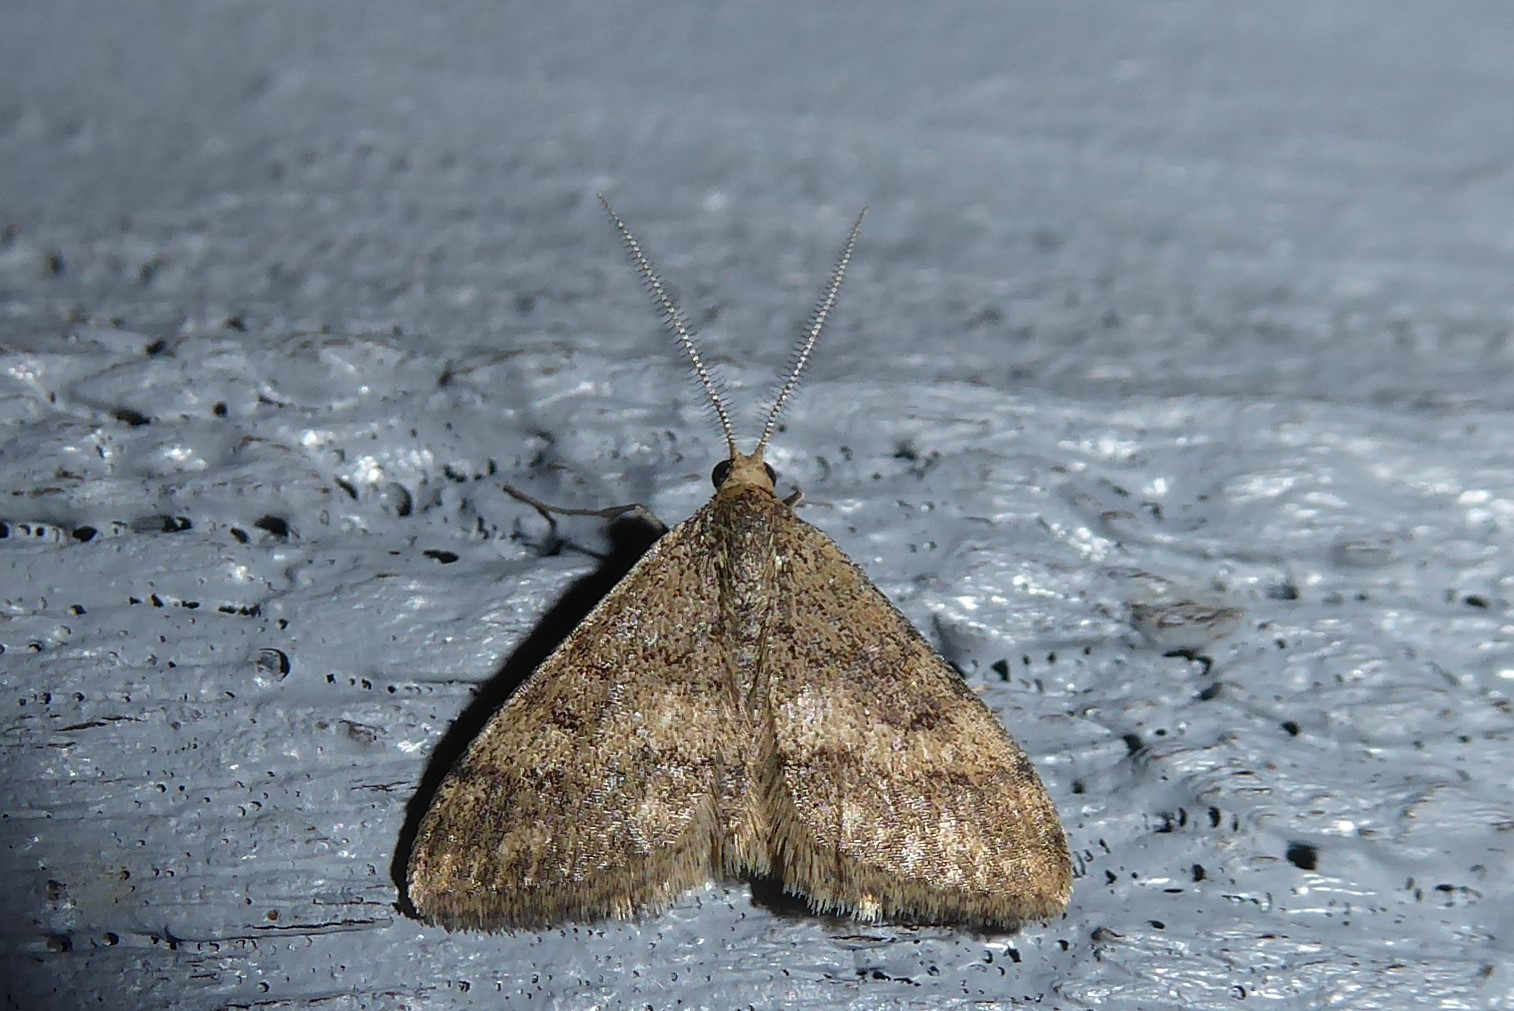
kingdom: Animalia
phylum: Arthropoda
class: Insecta
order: Lepidoptera
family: Geometridae
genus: Scopula
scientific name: Scopula rubraria
